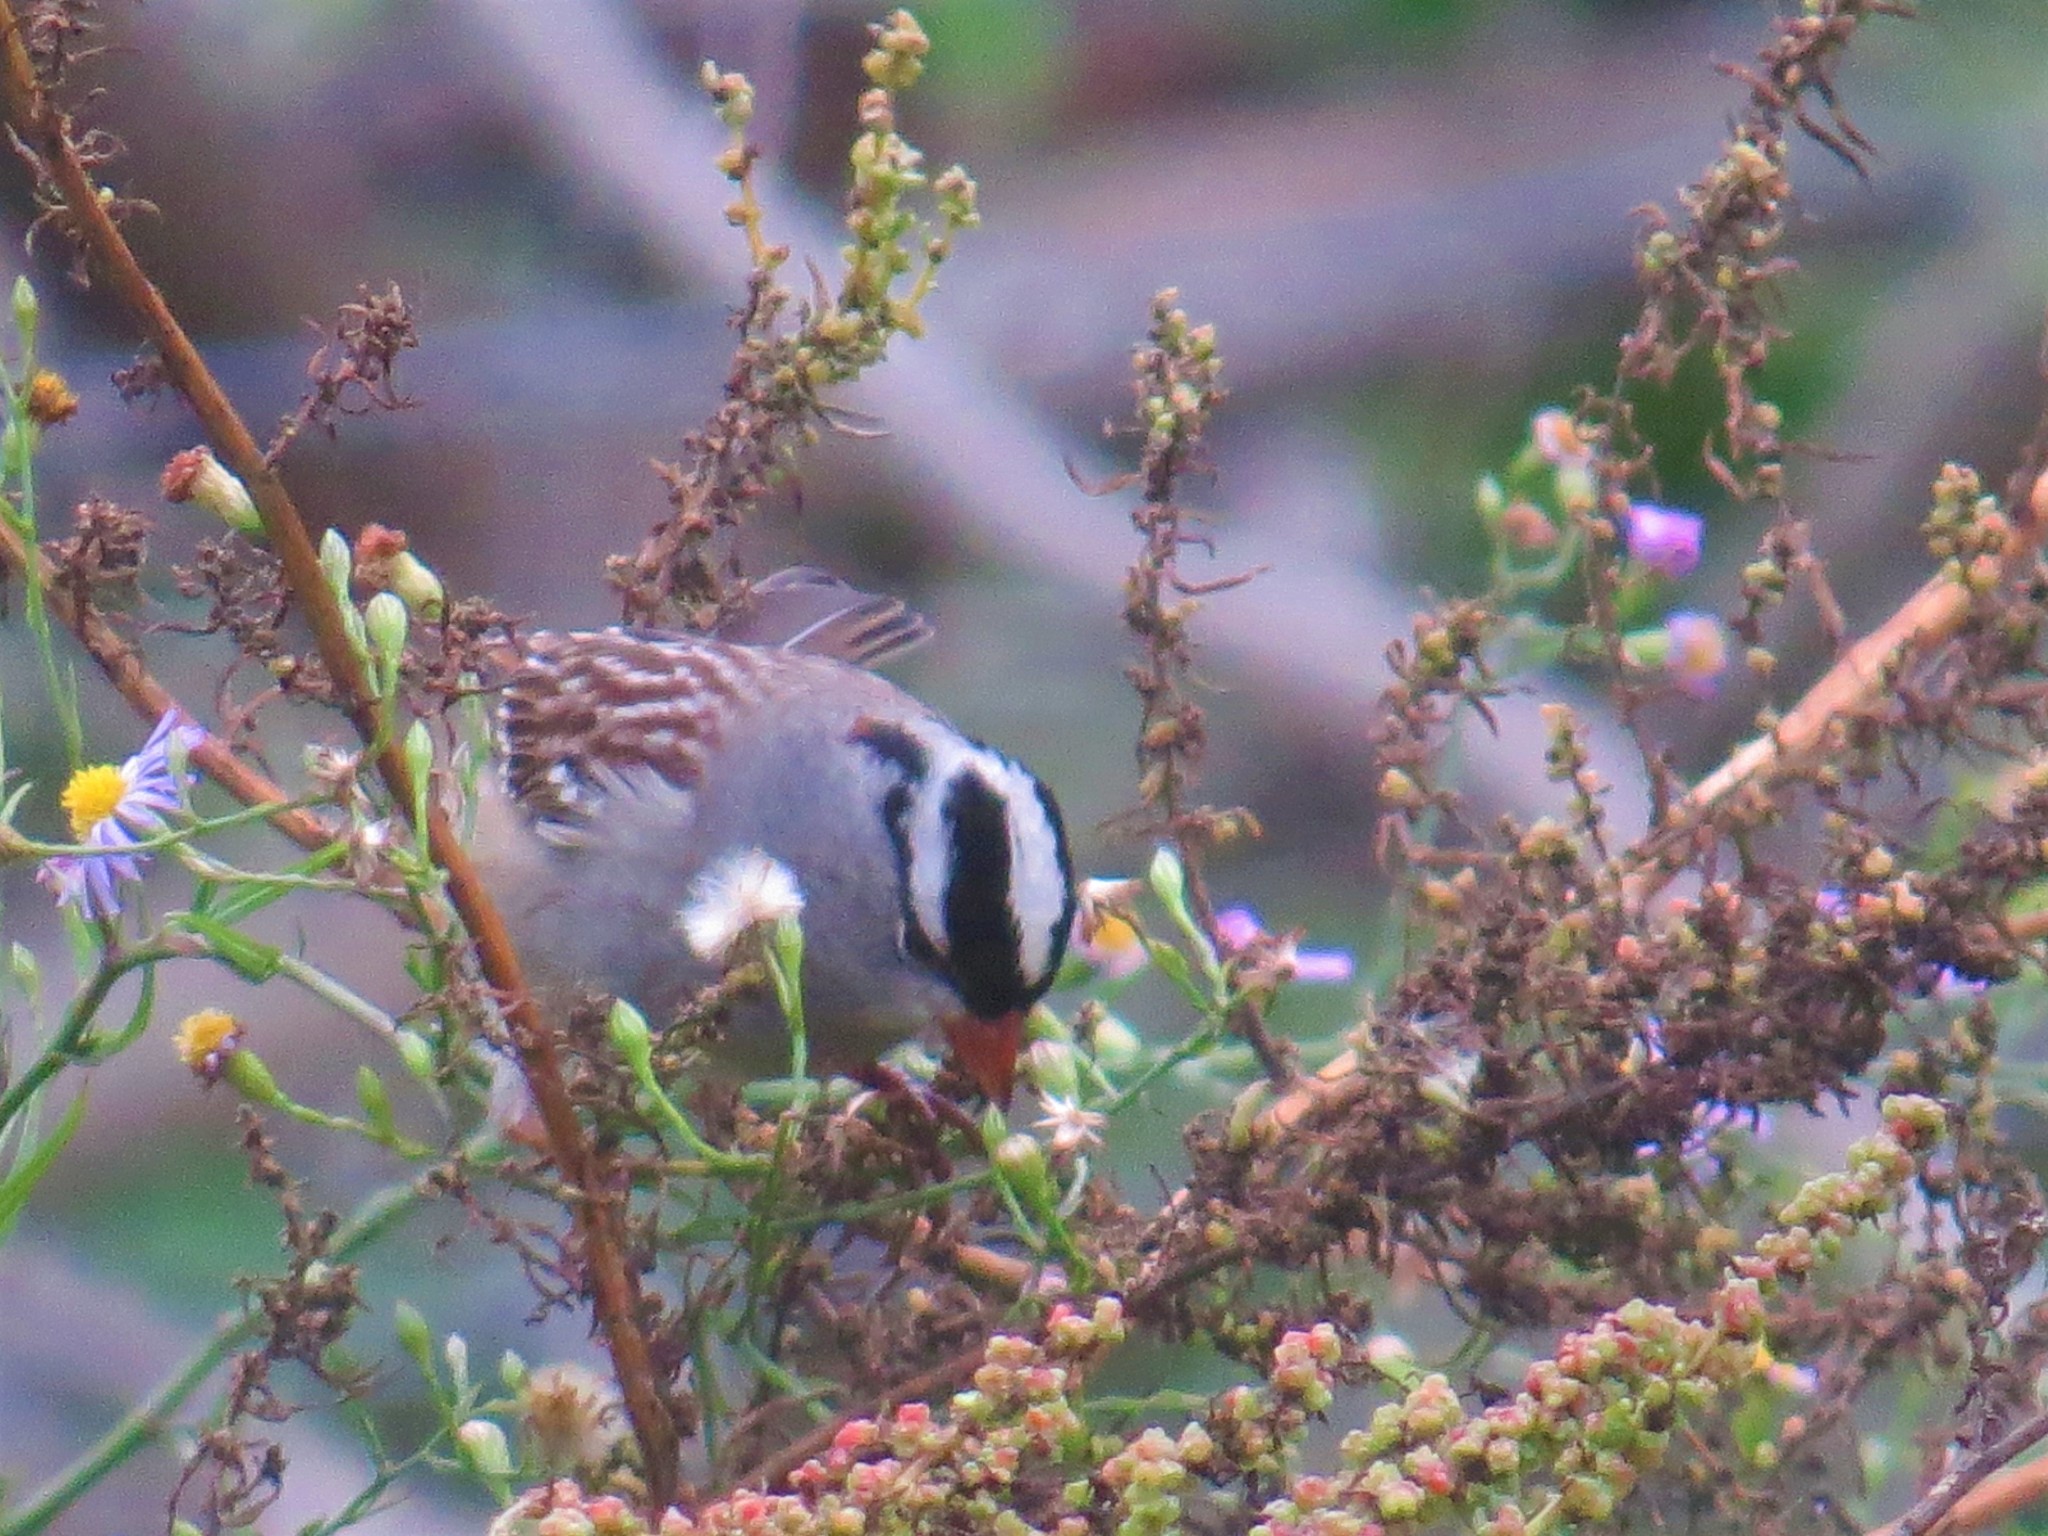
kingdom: Animalia
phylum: Chordata
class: Aves
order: Passeriformes
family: Passerellidae
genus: Zonotrichia
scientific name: Zonotrichia leucophrys
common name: White-crowned sparrow
